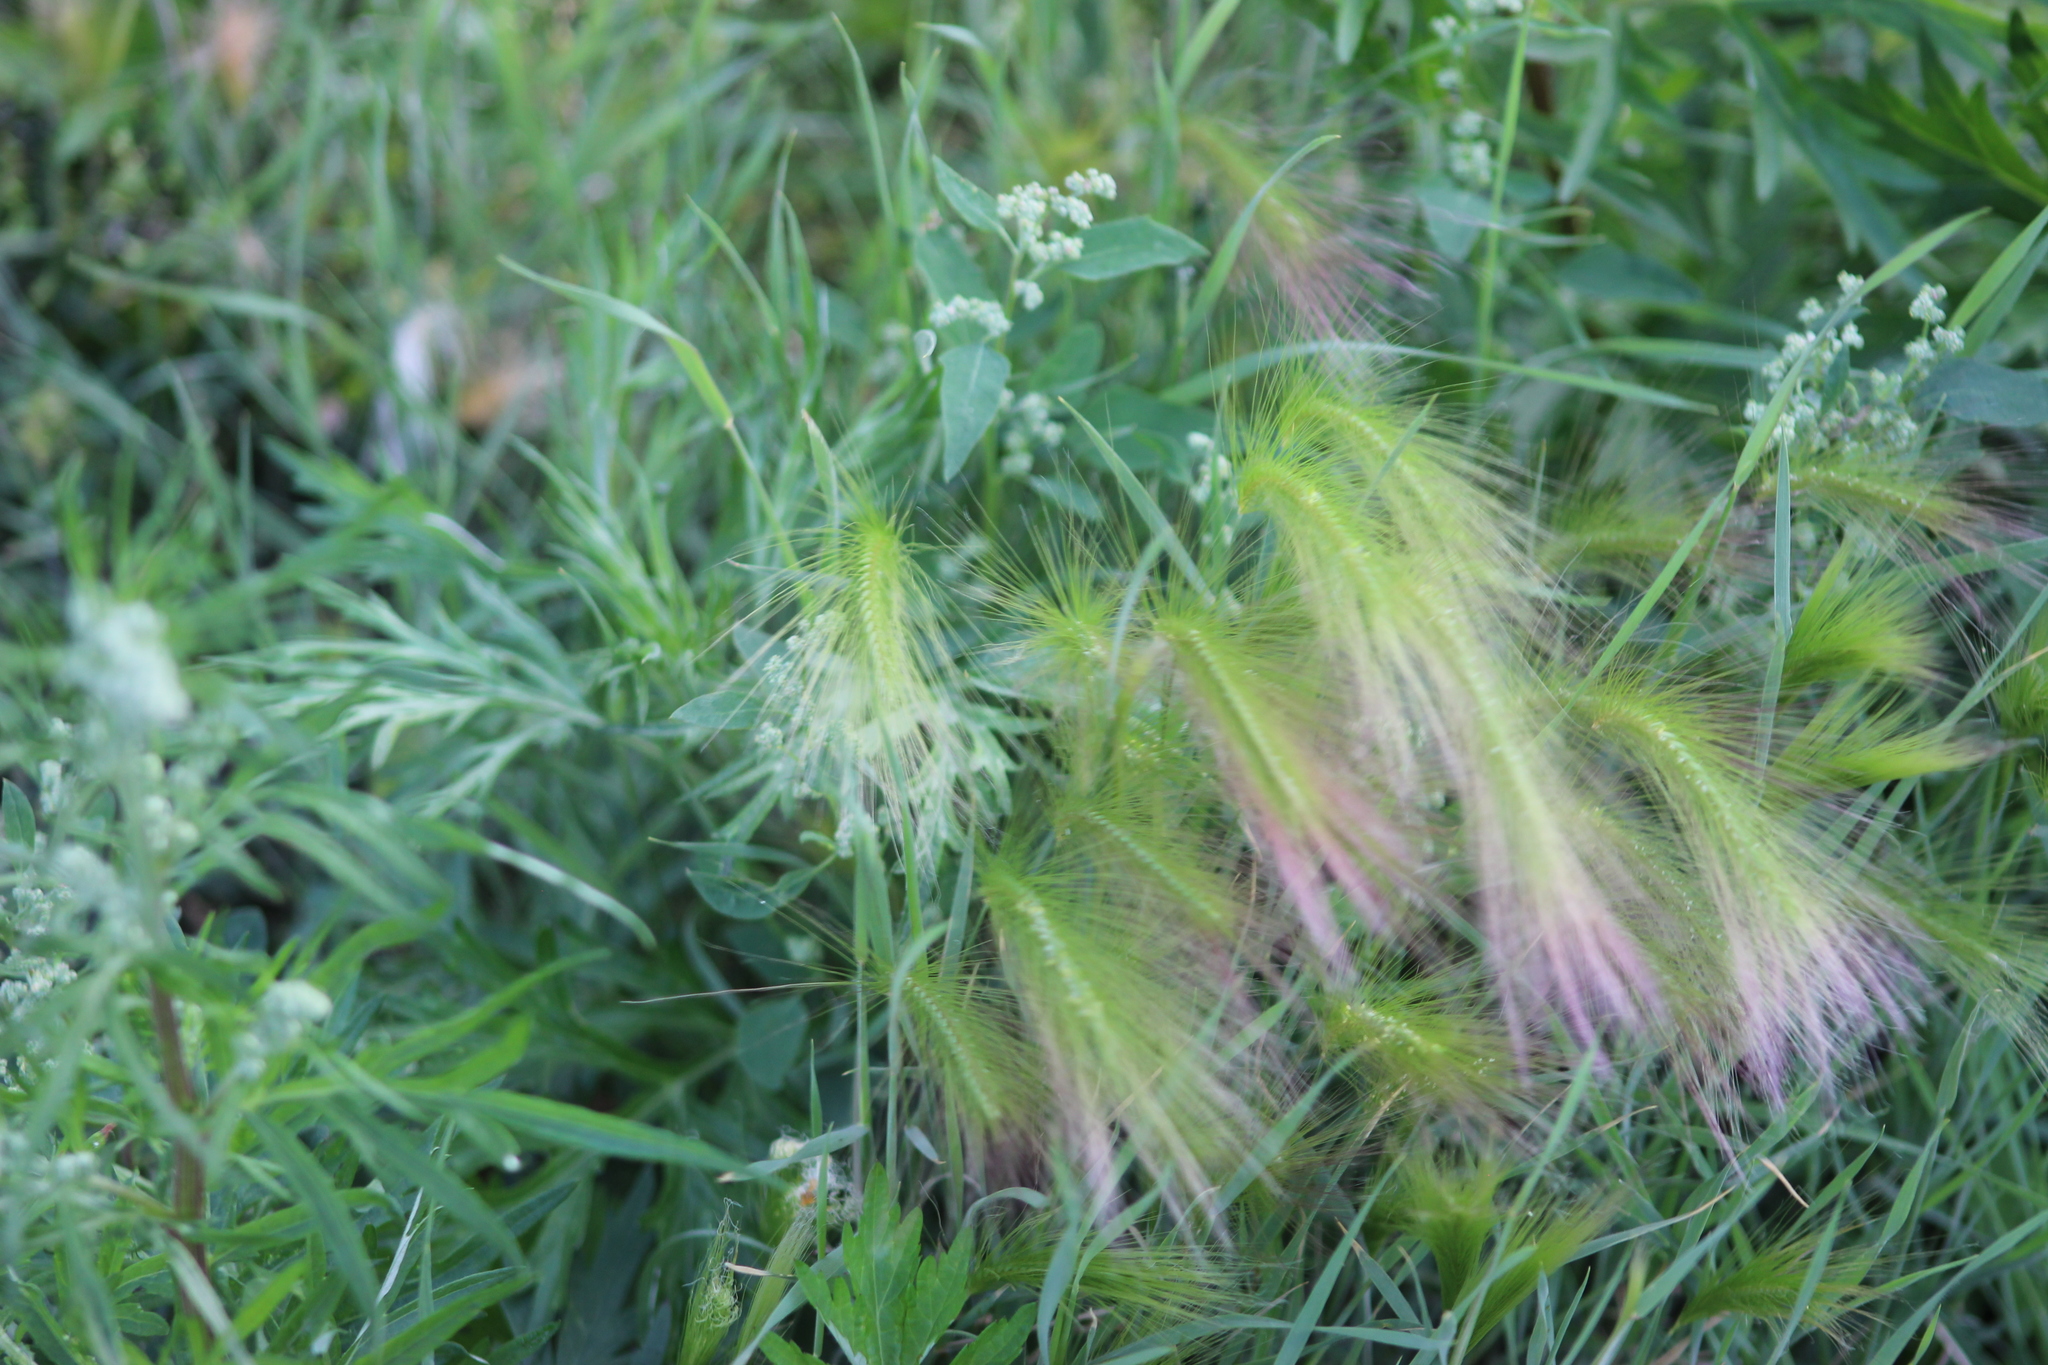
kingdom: Plantae
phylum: Tracheophyta
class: Liliopsida
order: Poales
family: Poaceae
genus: Hordeum
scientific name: Hordeum jubatum
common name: Foxtail barley
